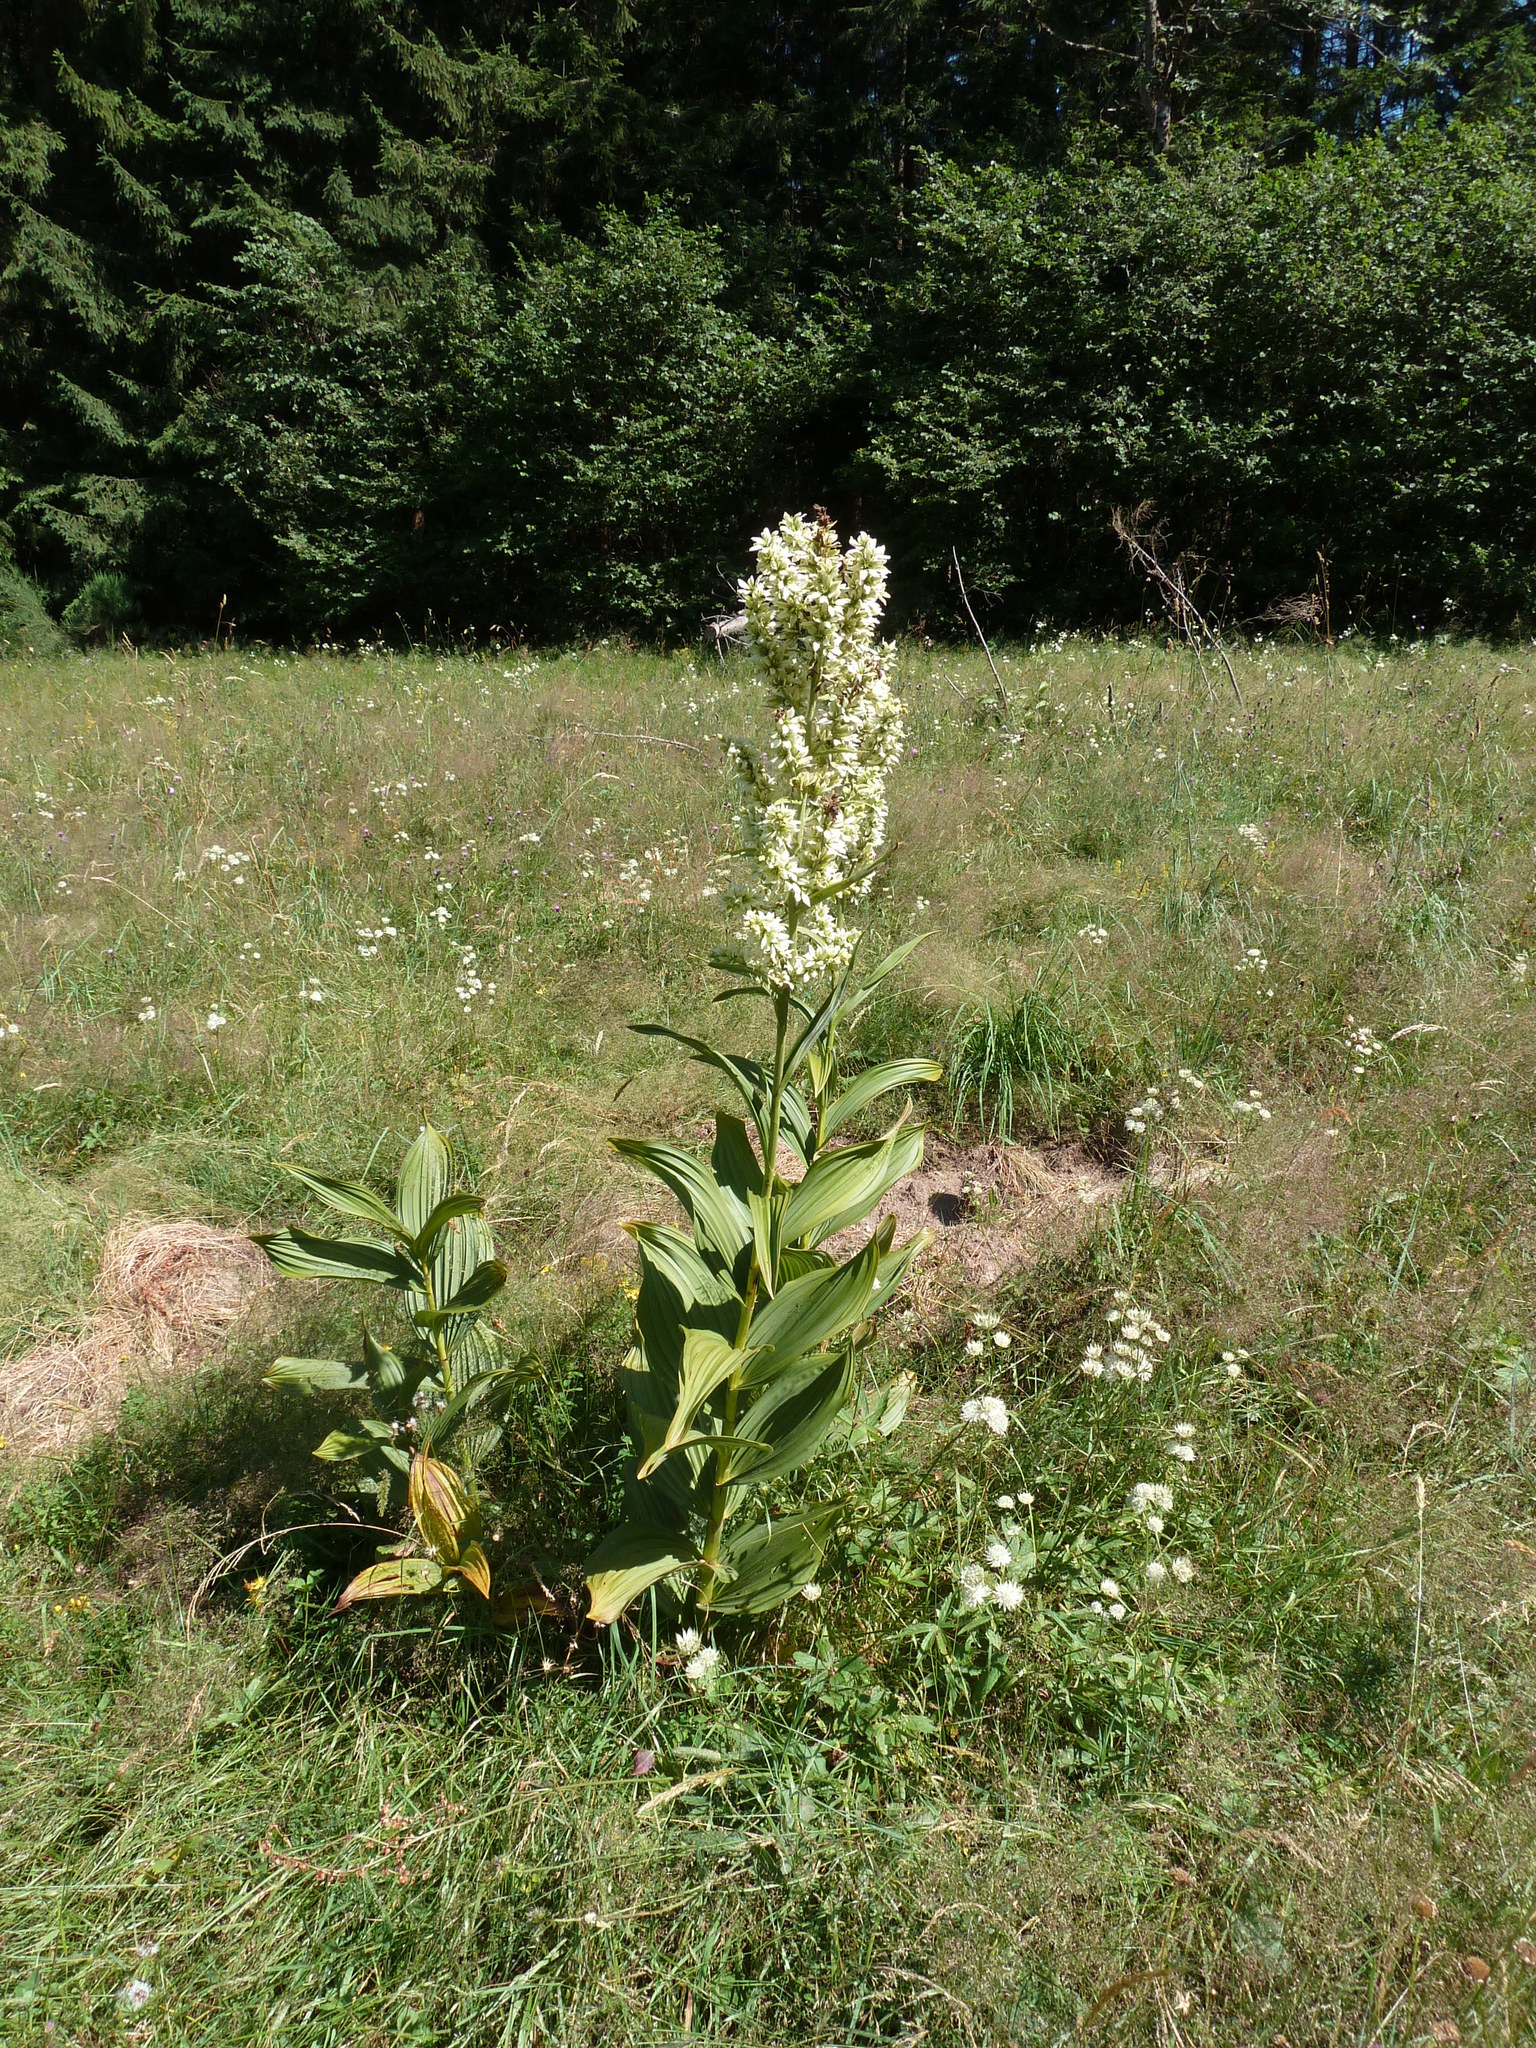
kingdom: Plantae
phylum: Tracheophyta
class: Liliopsida
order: Liliales
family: Melanthiaceae
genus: Veratrum
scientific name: Veratrum album
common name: White veratrum
